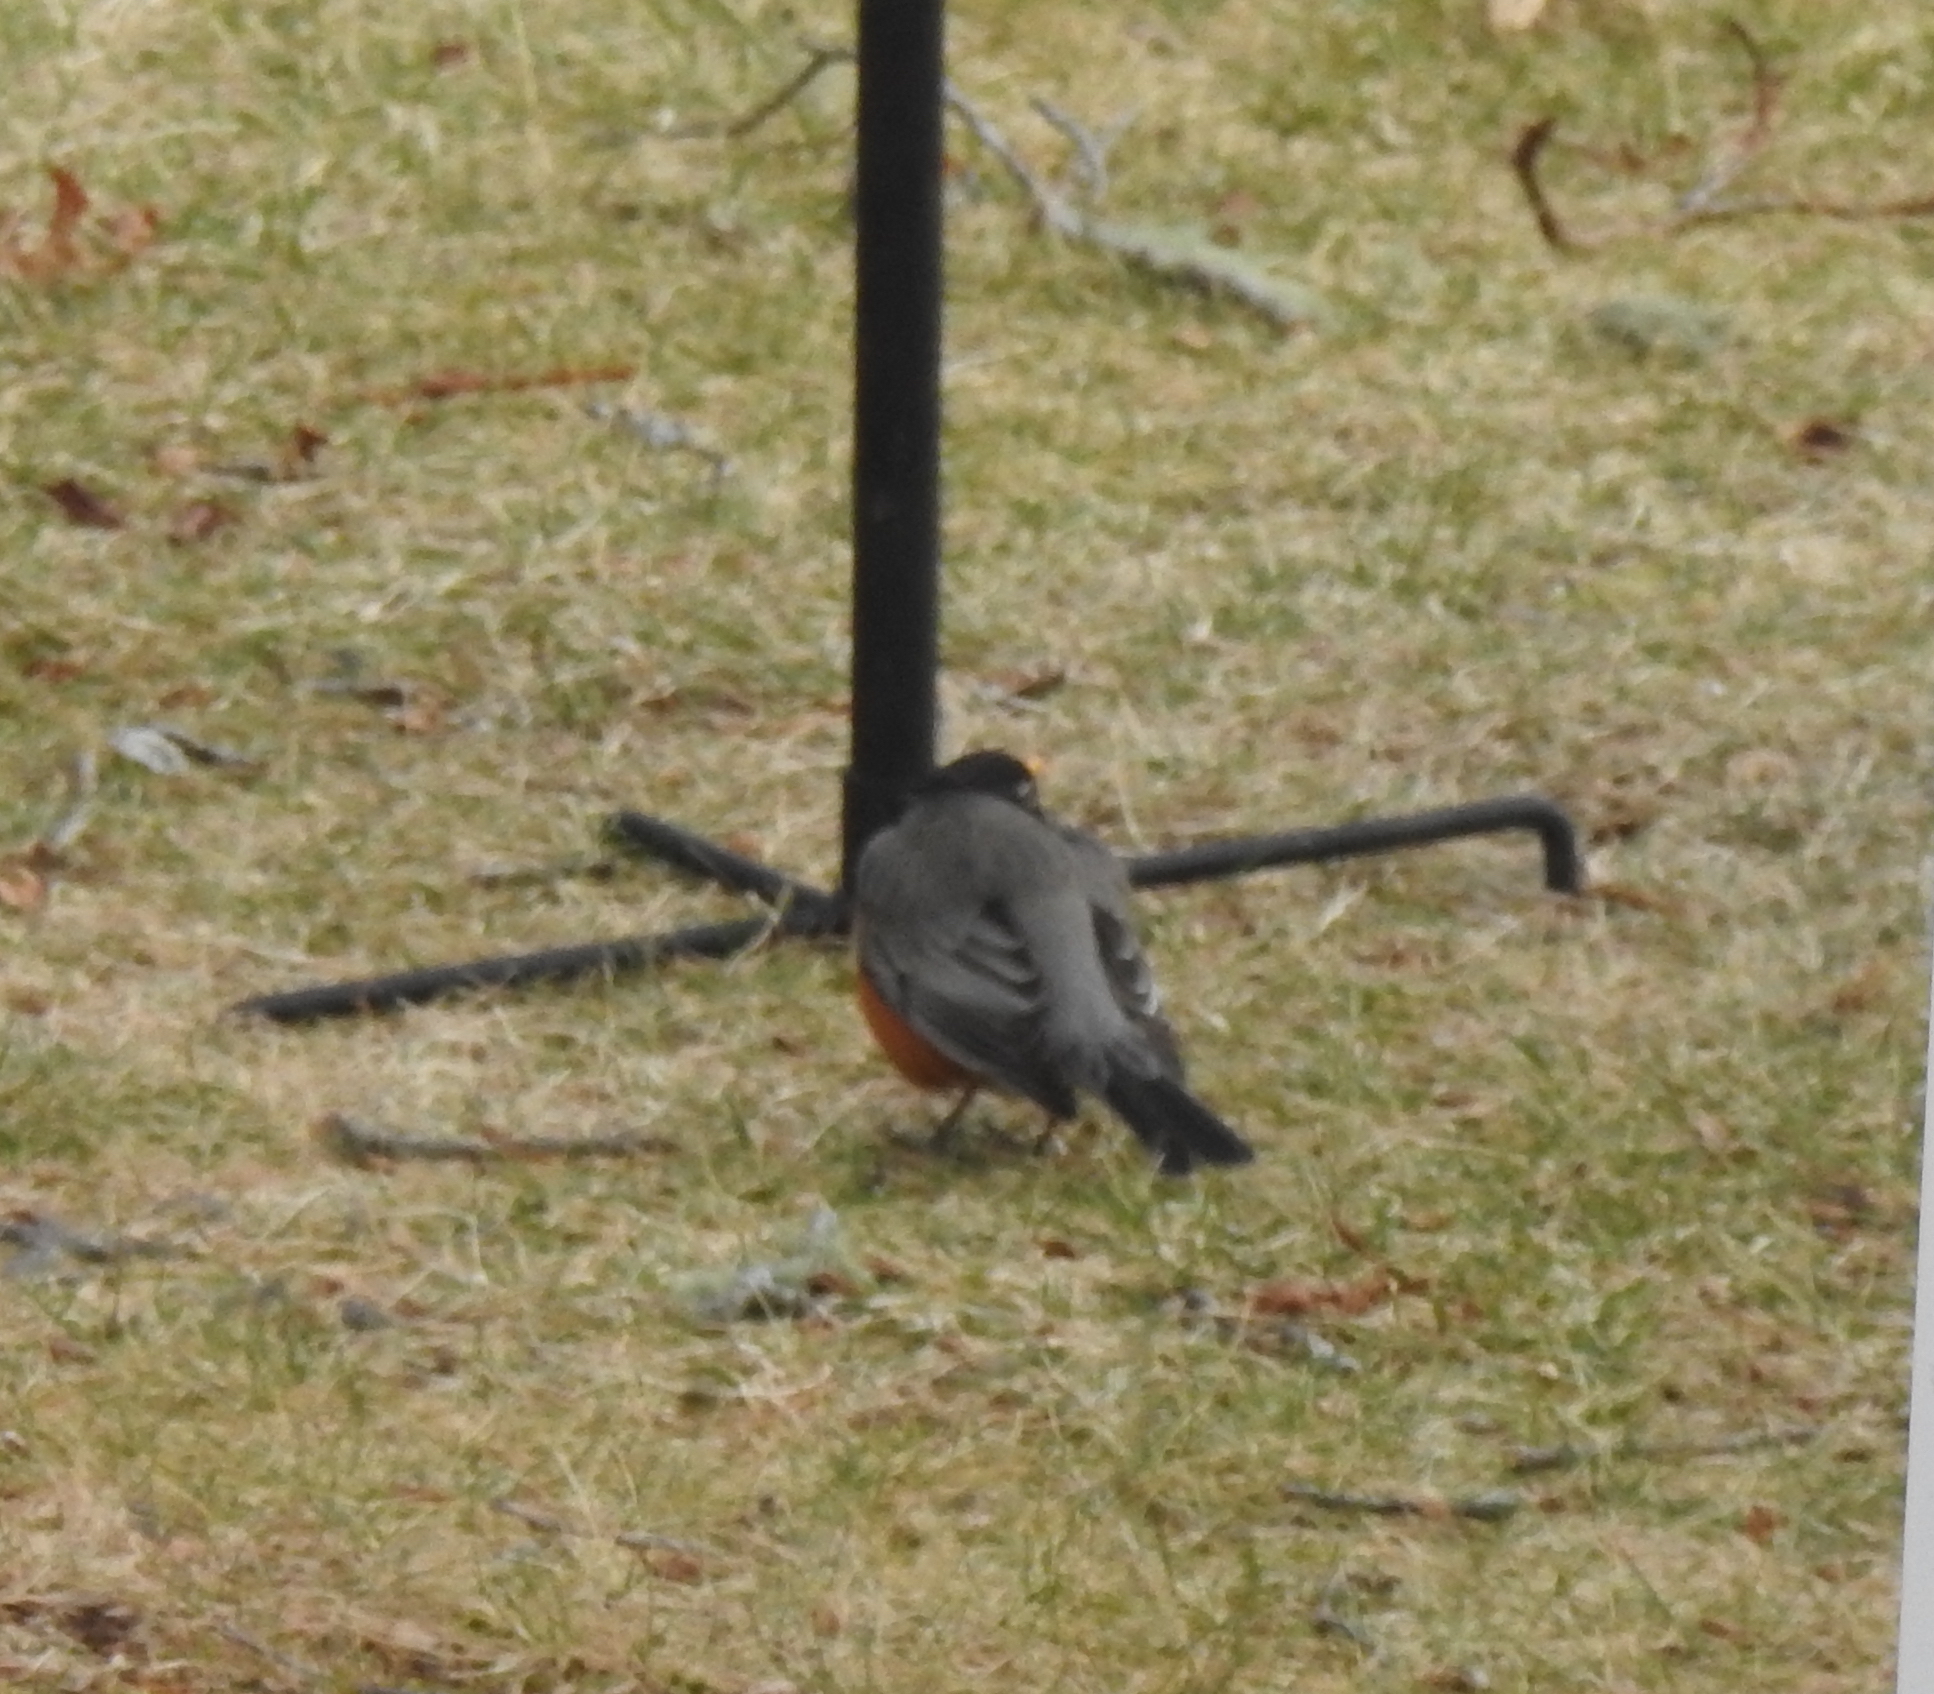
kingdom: Animalia
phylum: Chordata
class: Aves
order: Passeriformes
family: Turdidae
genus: Turdus
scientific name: Turdus migratorius
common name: American robin
